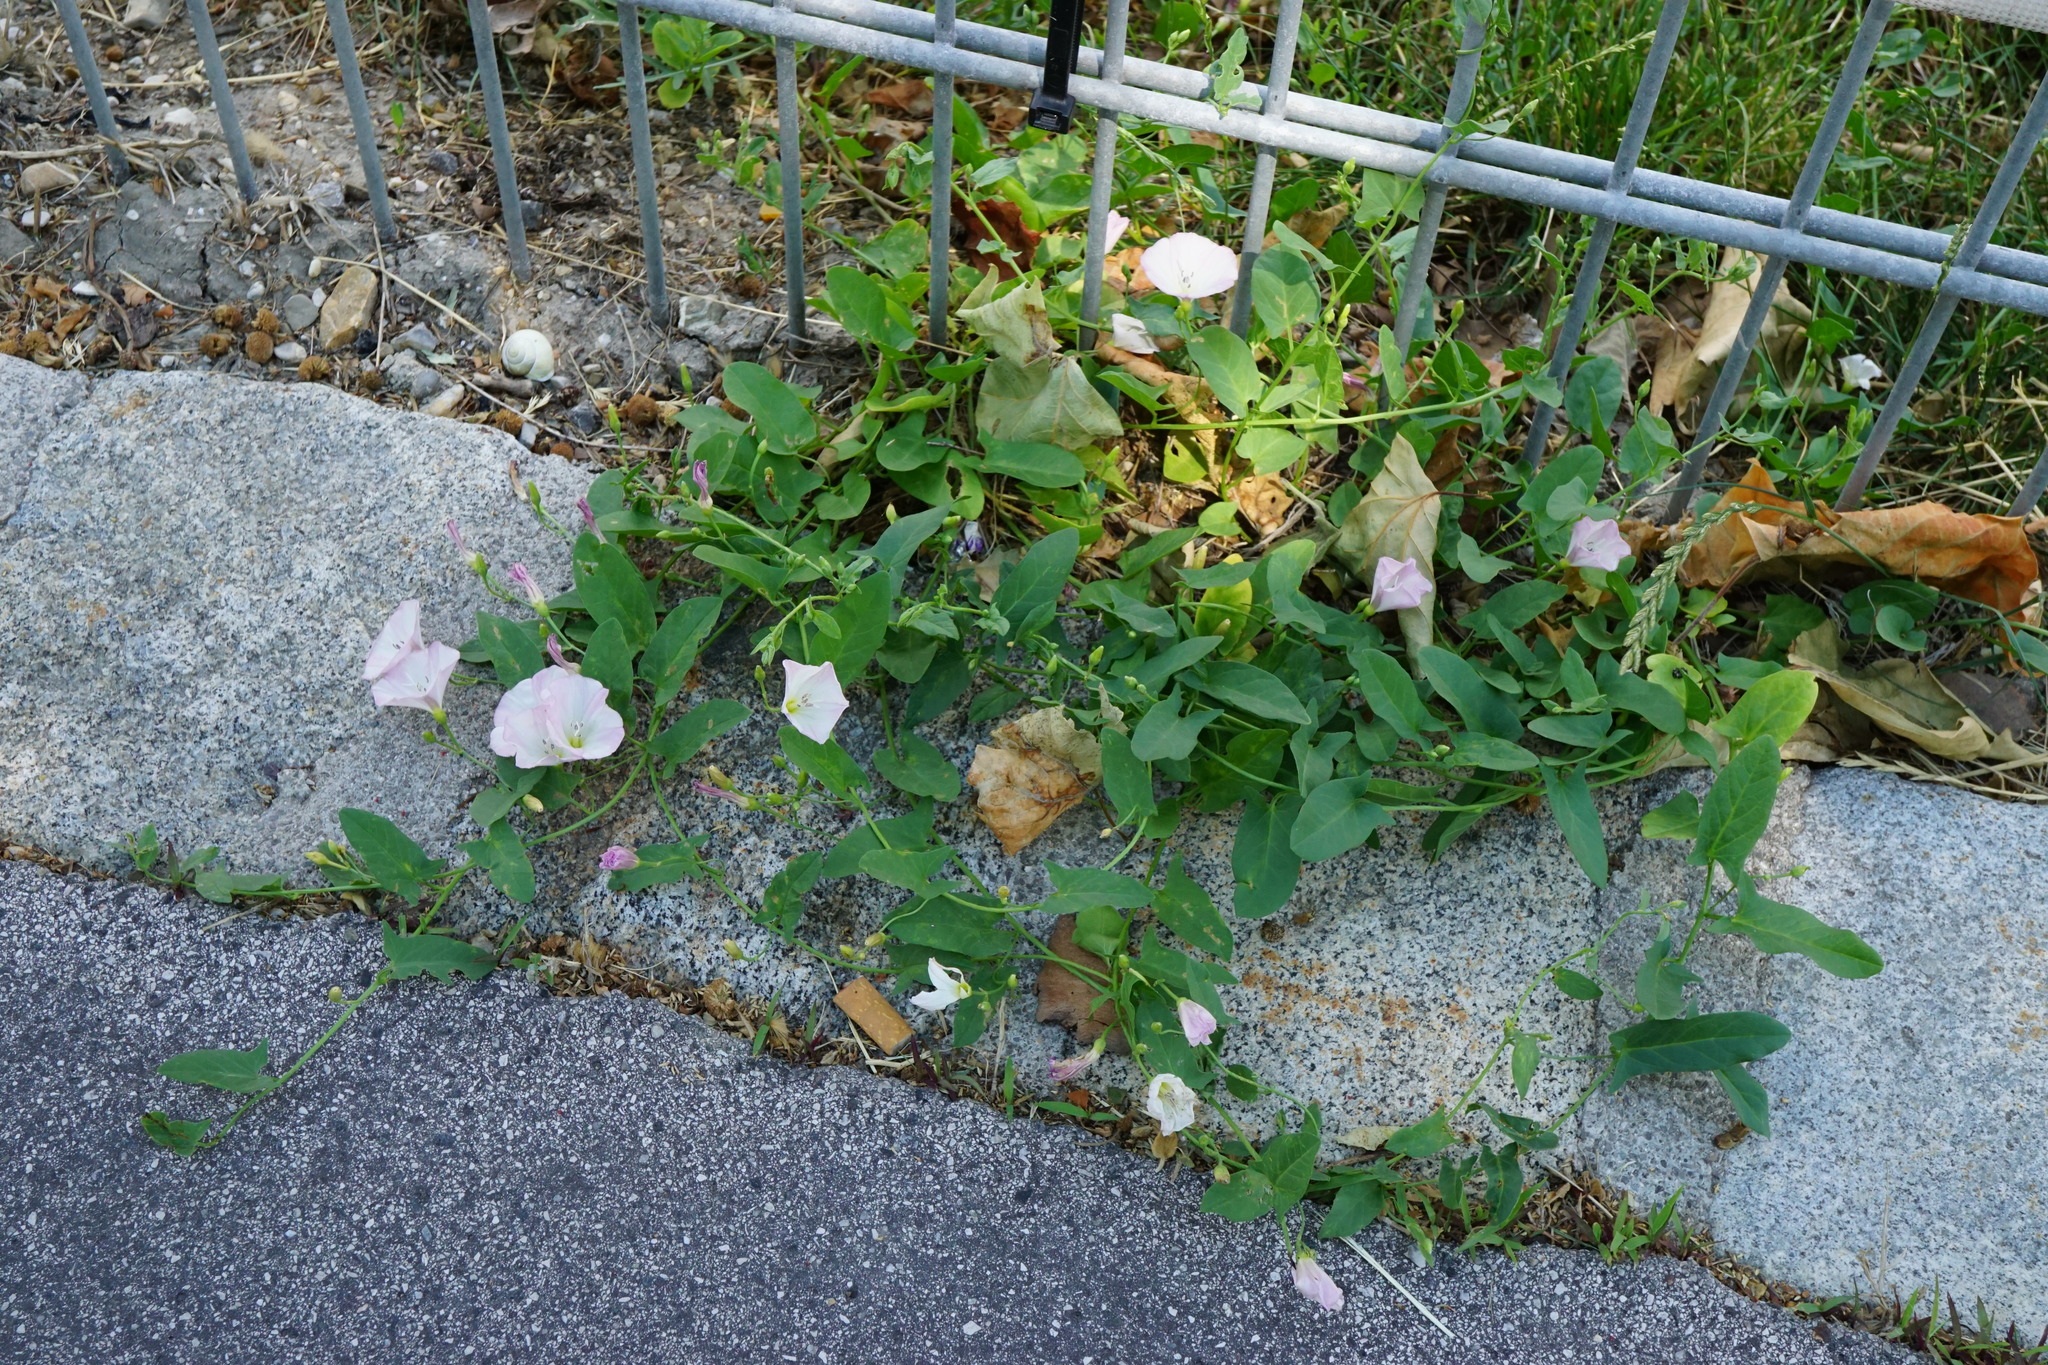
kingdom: Plantae
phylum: Tracheophyta
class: Magnoliopsida
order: Solanales
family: Convolvulaceae
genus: Convolvulus
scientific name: Convolvulus arvensis
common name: Field bindweed
